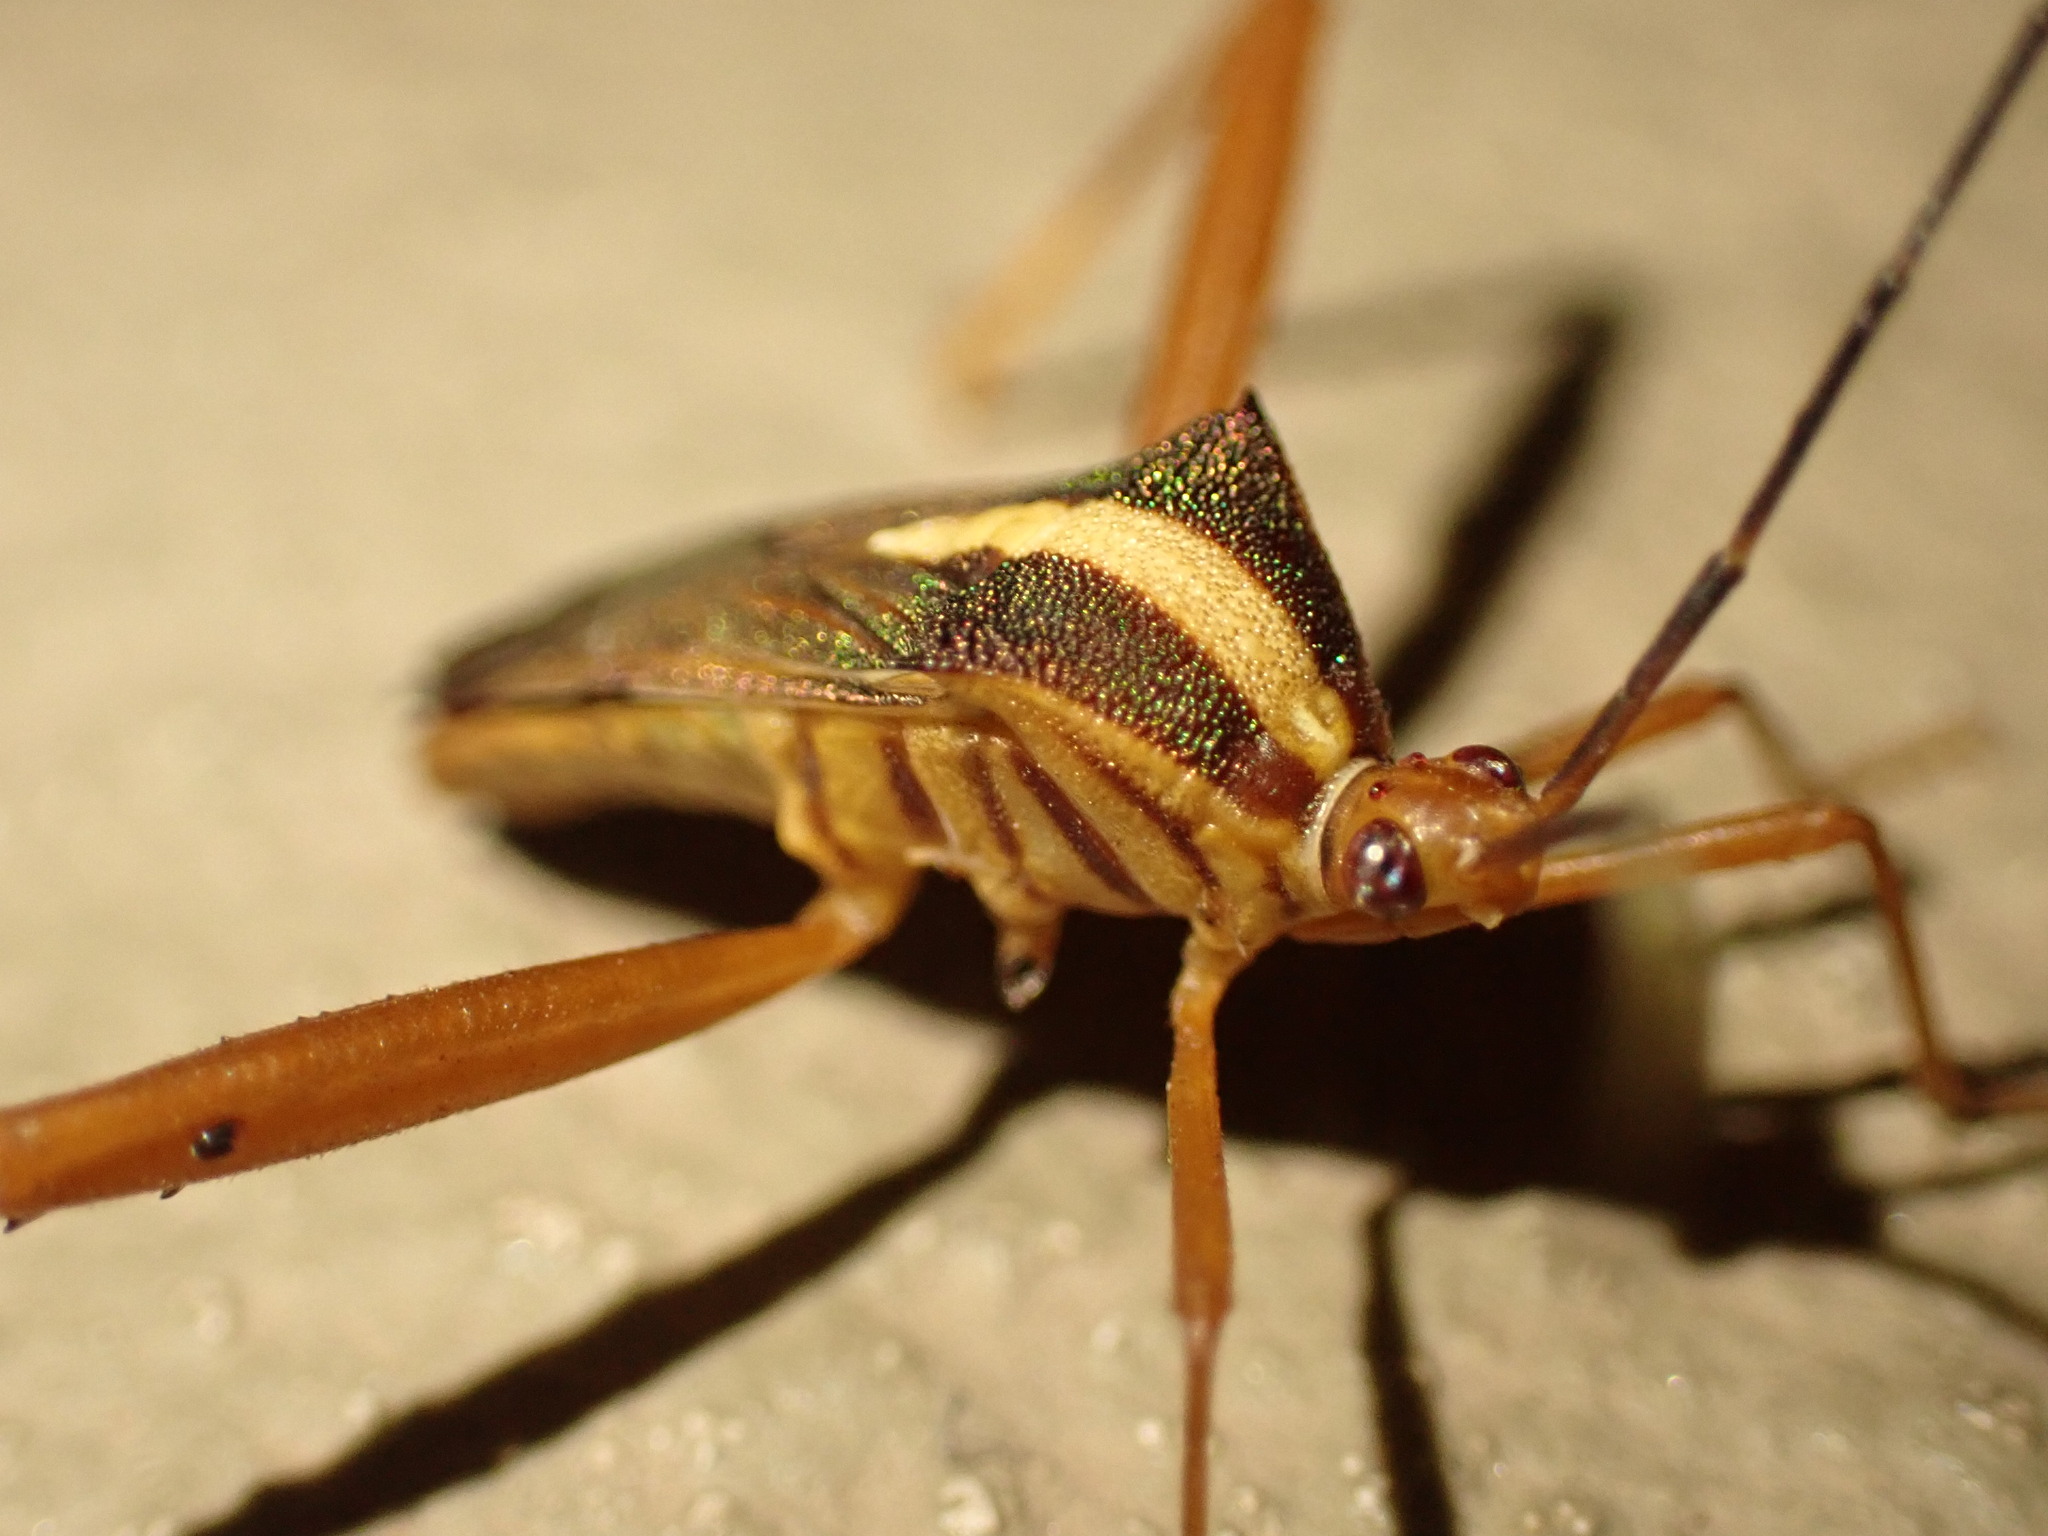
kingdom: Animalia
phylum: Arthropoda
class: Insecta
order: Hemiptera
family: Coreidae
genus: Lucullia
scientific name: Lucullia flavovittata
